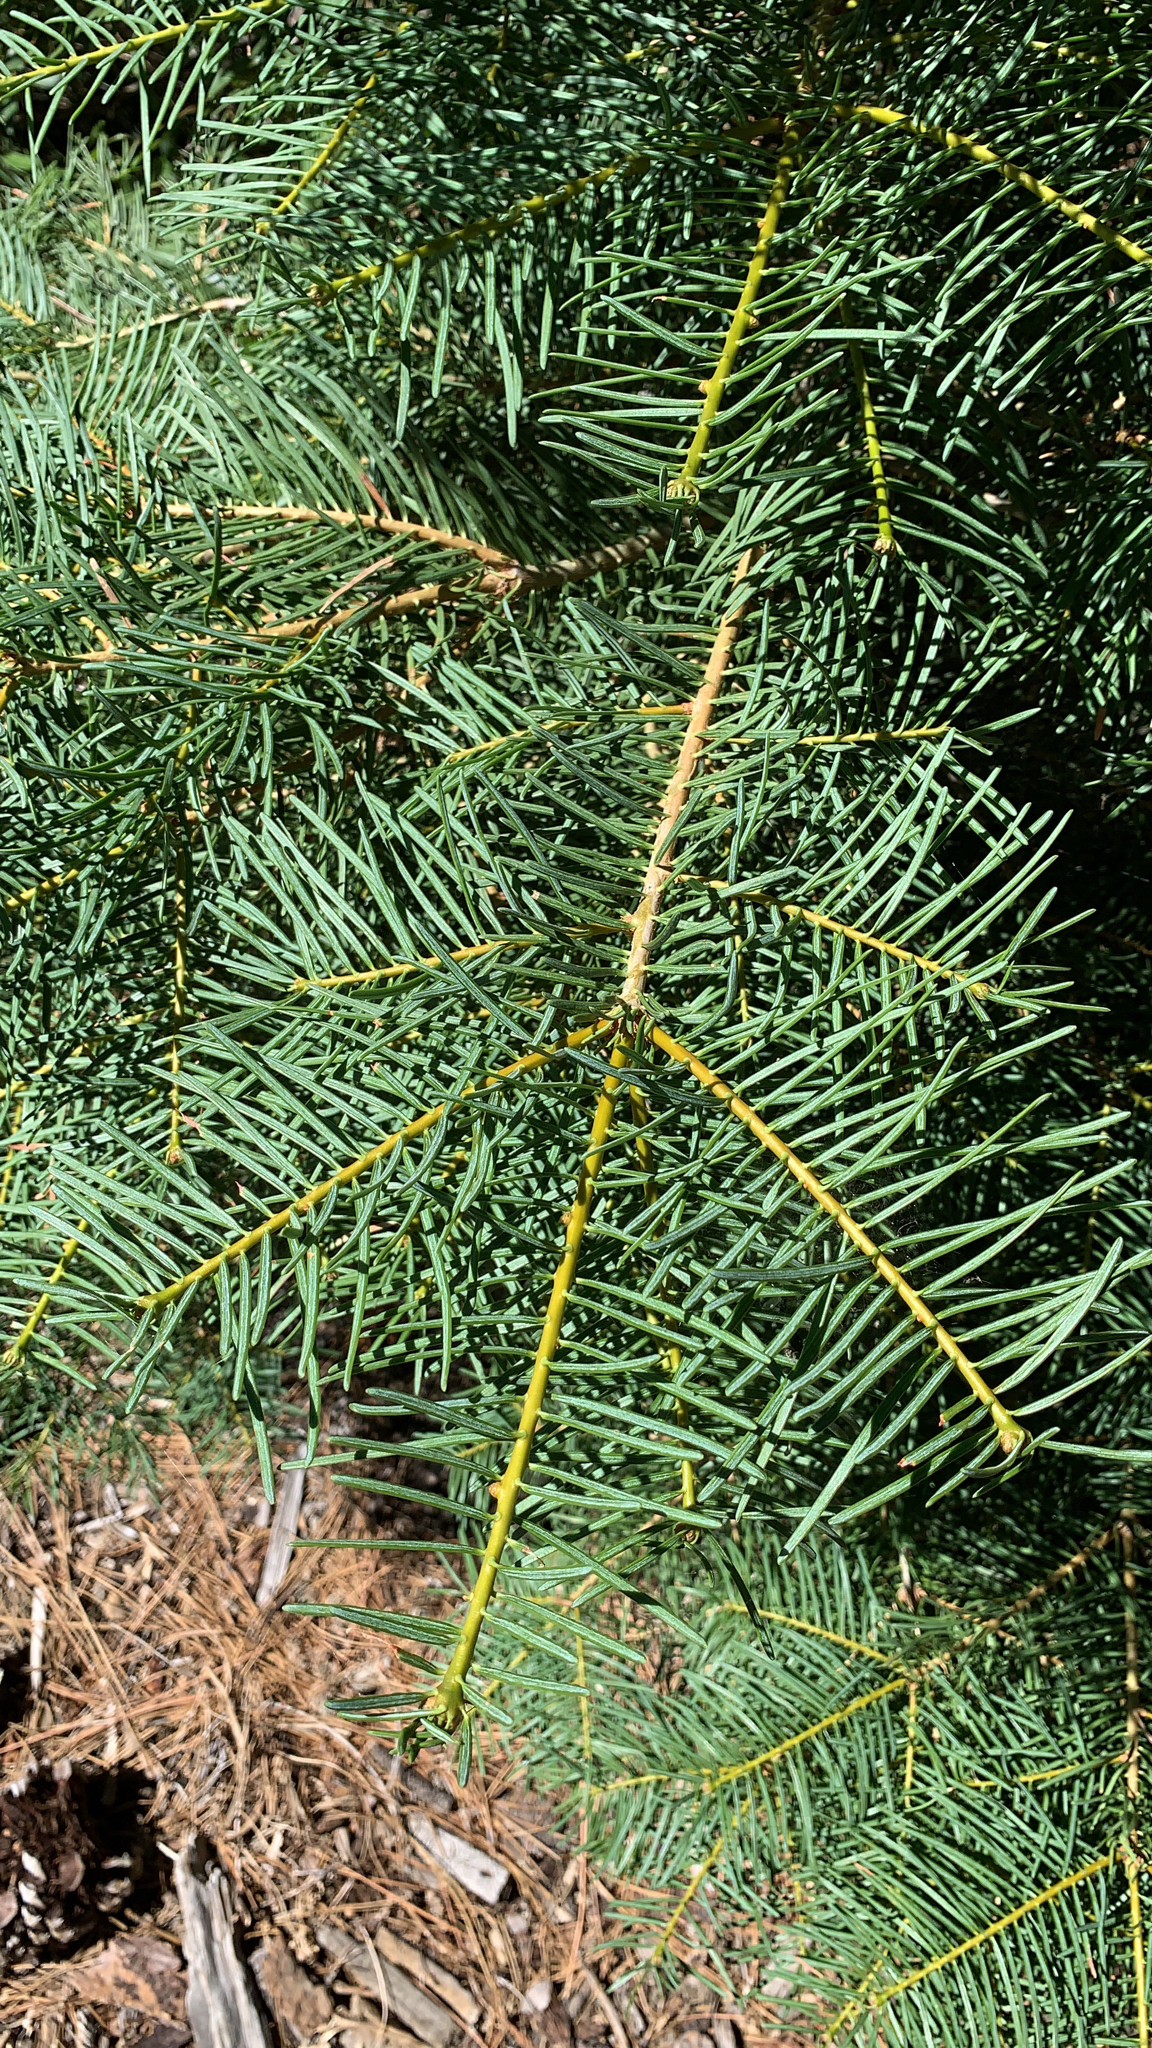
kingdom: Plantae
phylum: Tracheophyta
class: Pinopsida
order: Pinales
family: Pinaceae
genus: Abies
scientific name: Abies concolor
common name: Colorado fir
